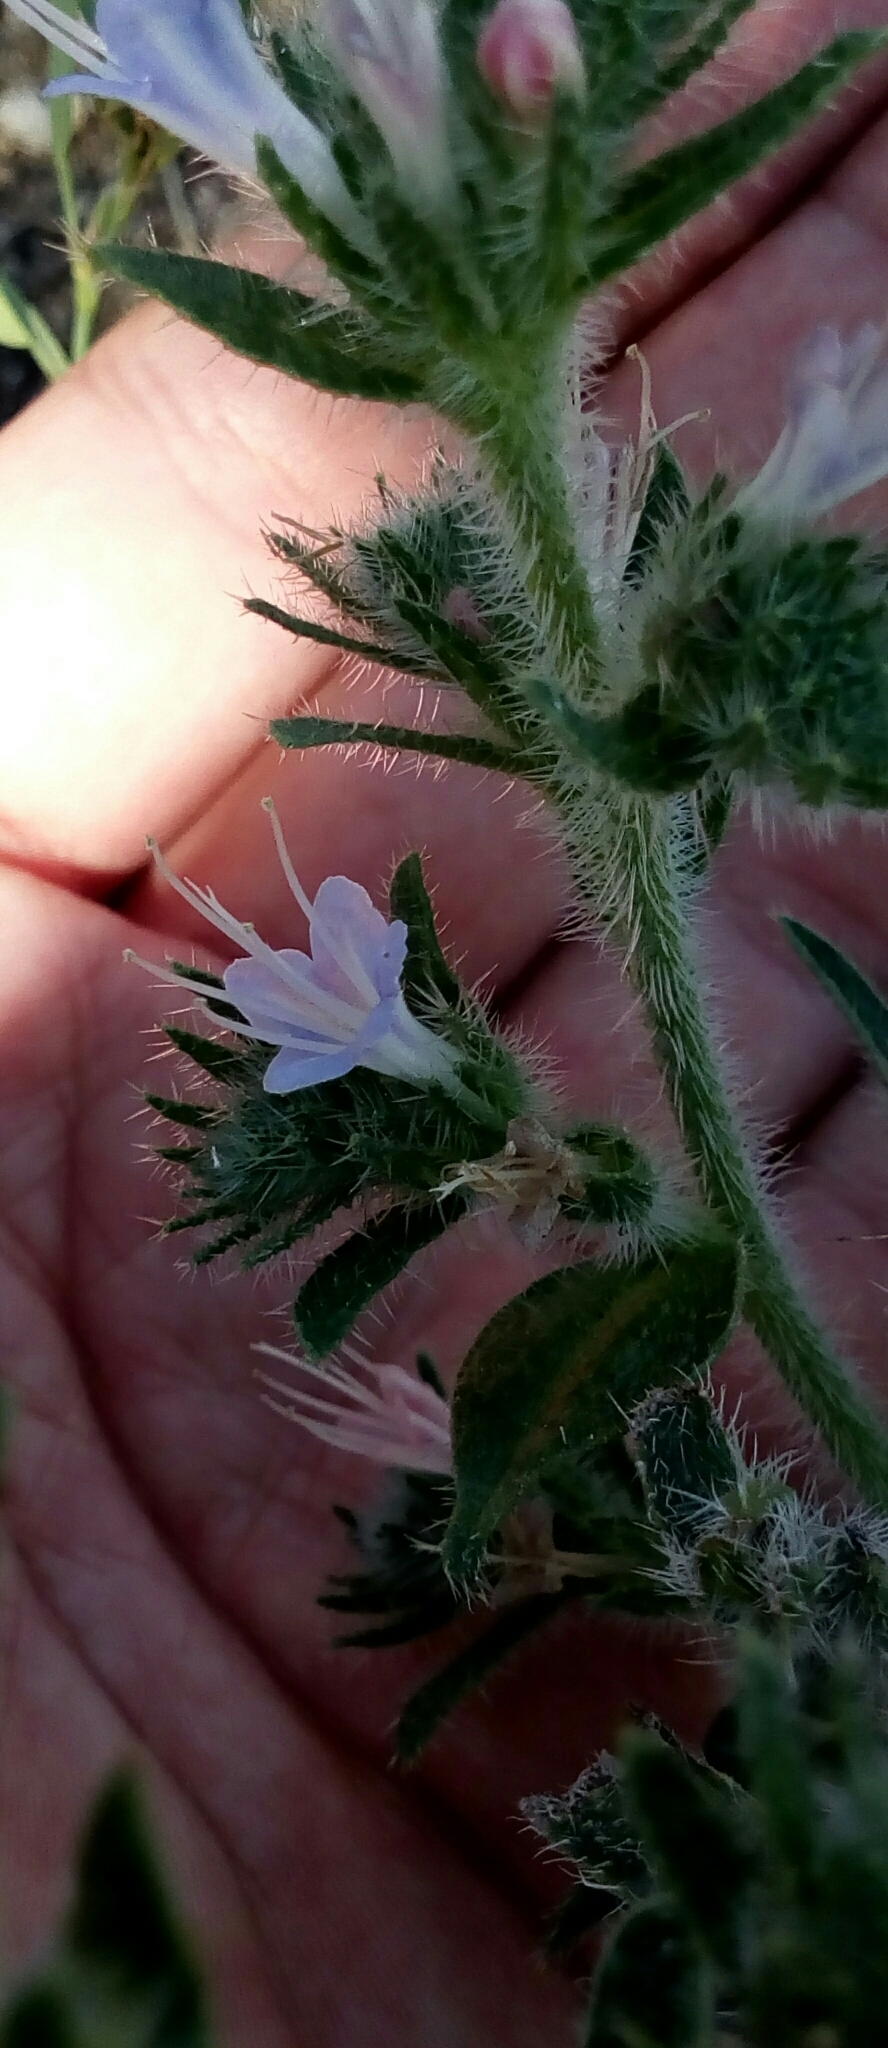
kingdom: Plantae
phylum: Tracheophyta
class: Magnoliopsida
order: Boraginales
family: Boraginaceae
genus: Echium
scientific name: Echium italicum
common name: Italian viper's bugloss
